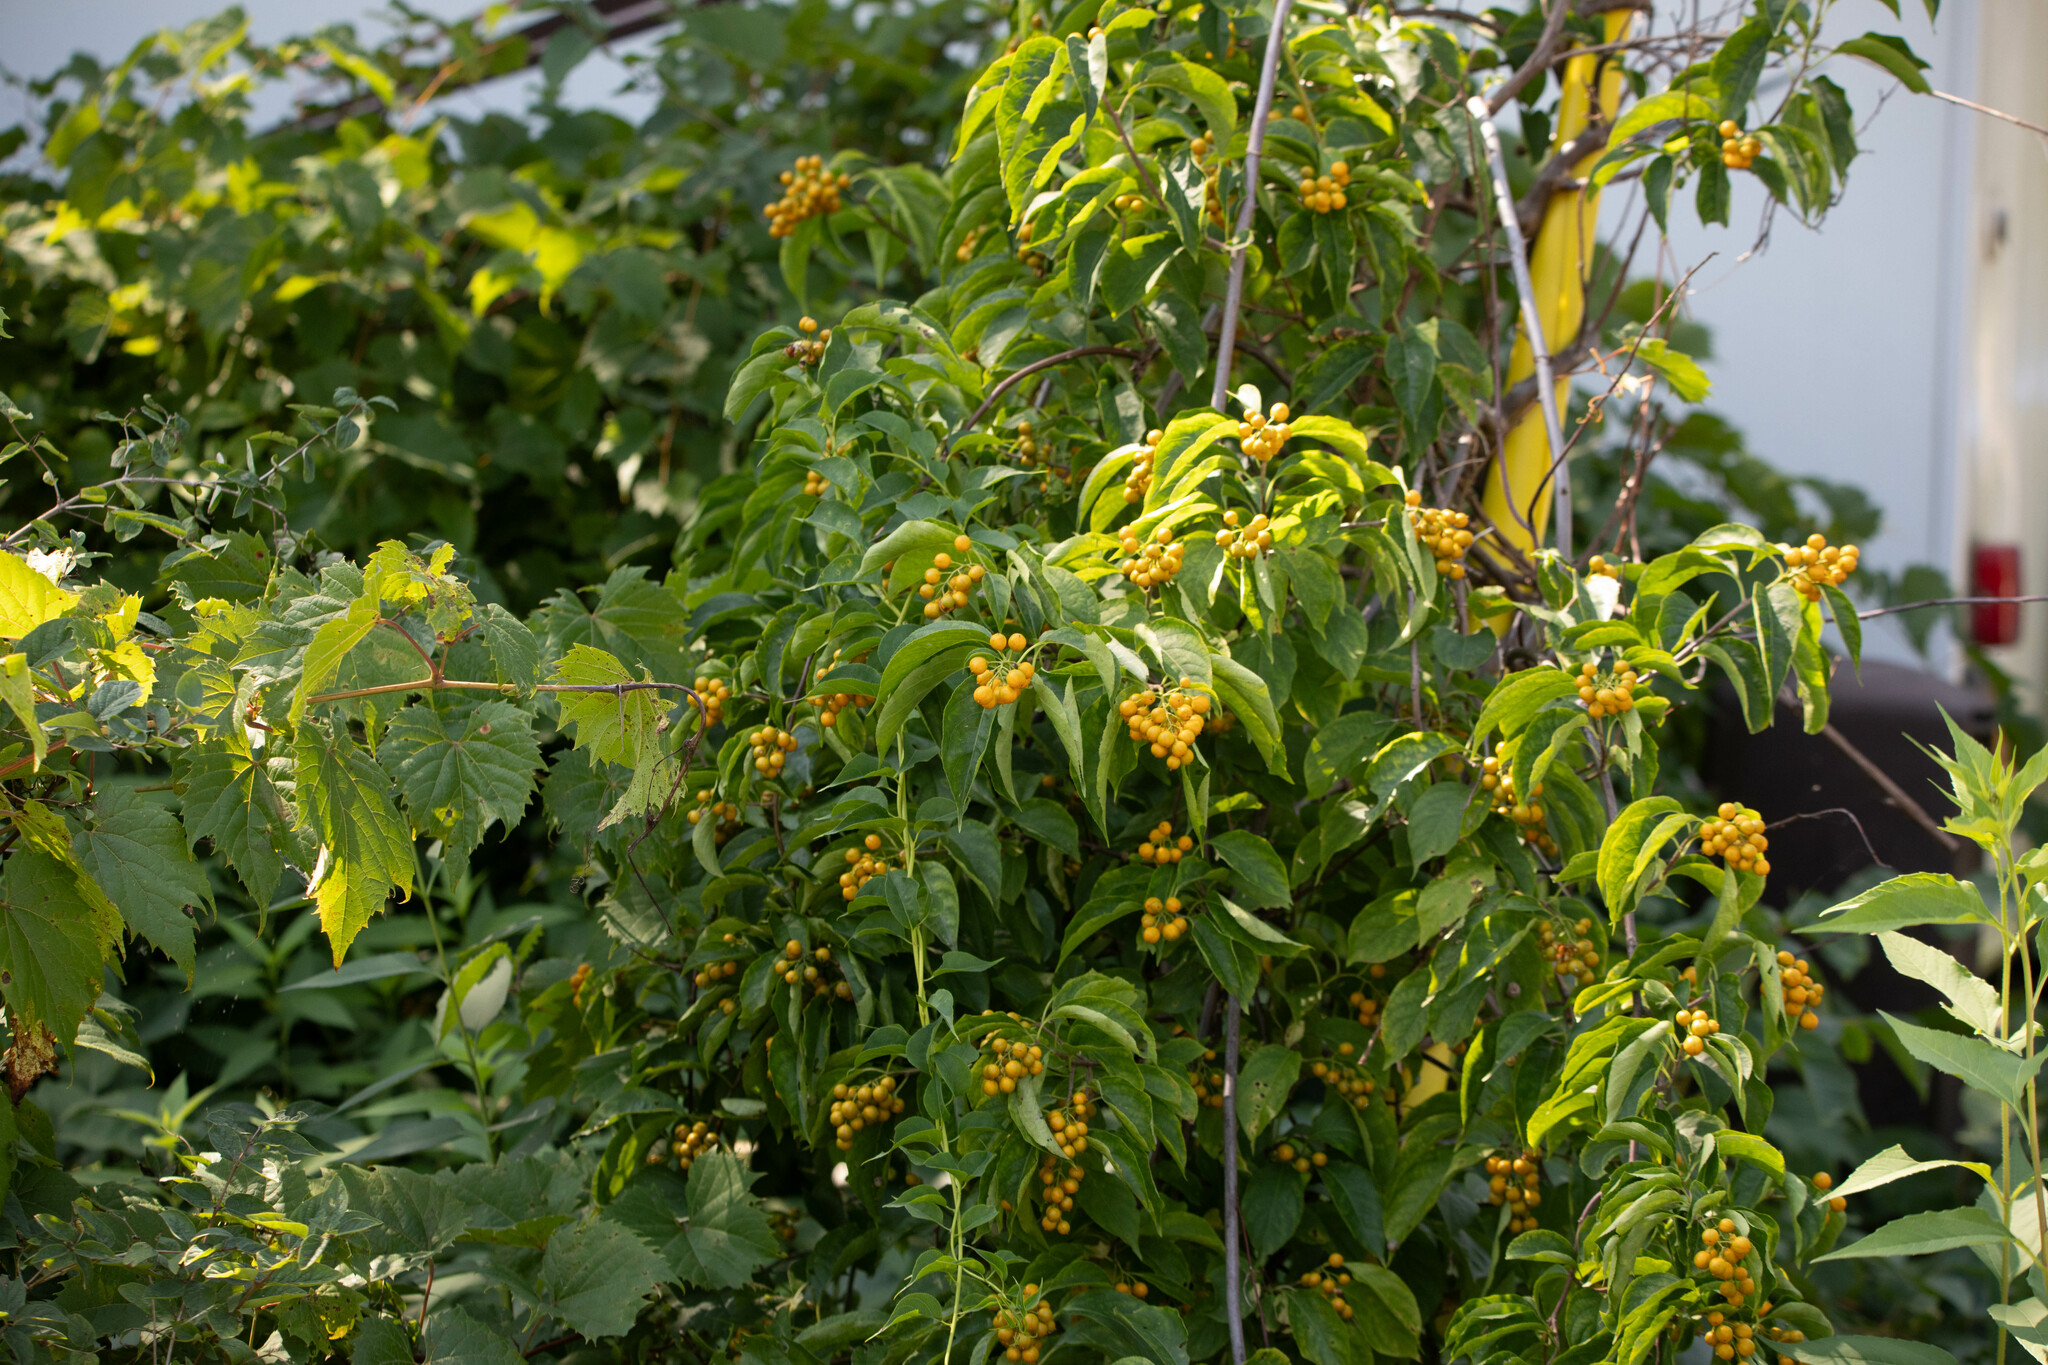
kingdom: Plantae
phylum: Tracheophyta
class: Magnoliopsida
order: Celastrales
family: Celastraceae
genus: Celastrus
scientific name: Celastrus scandens
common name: American bittersweet
